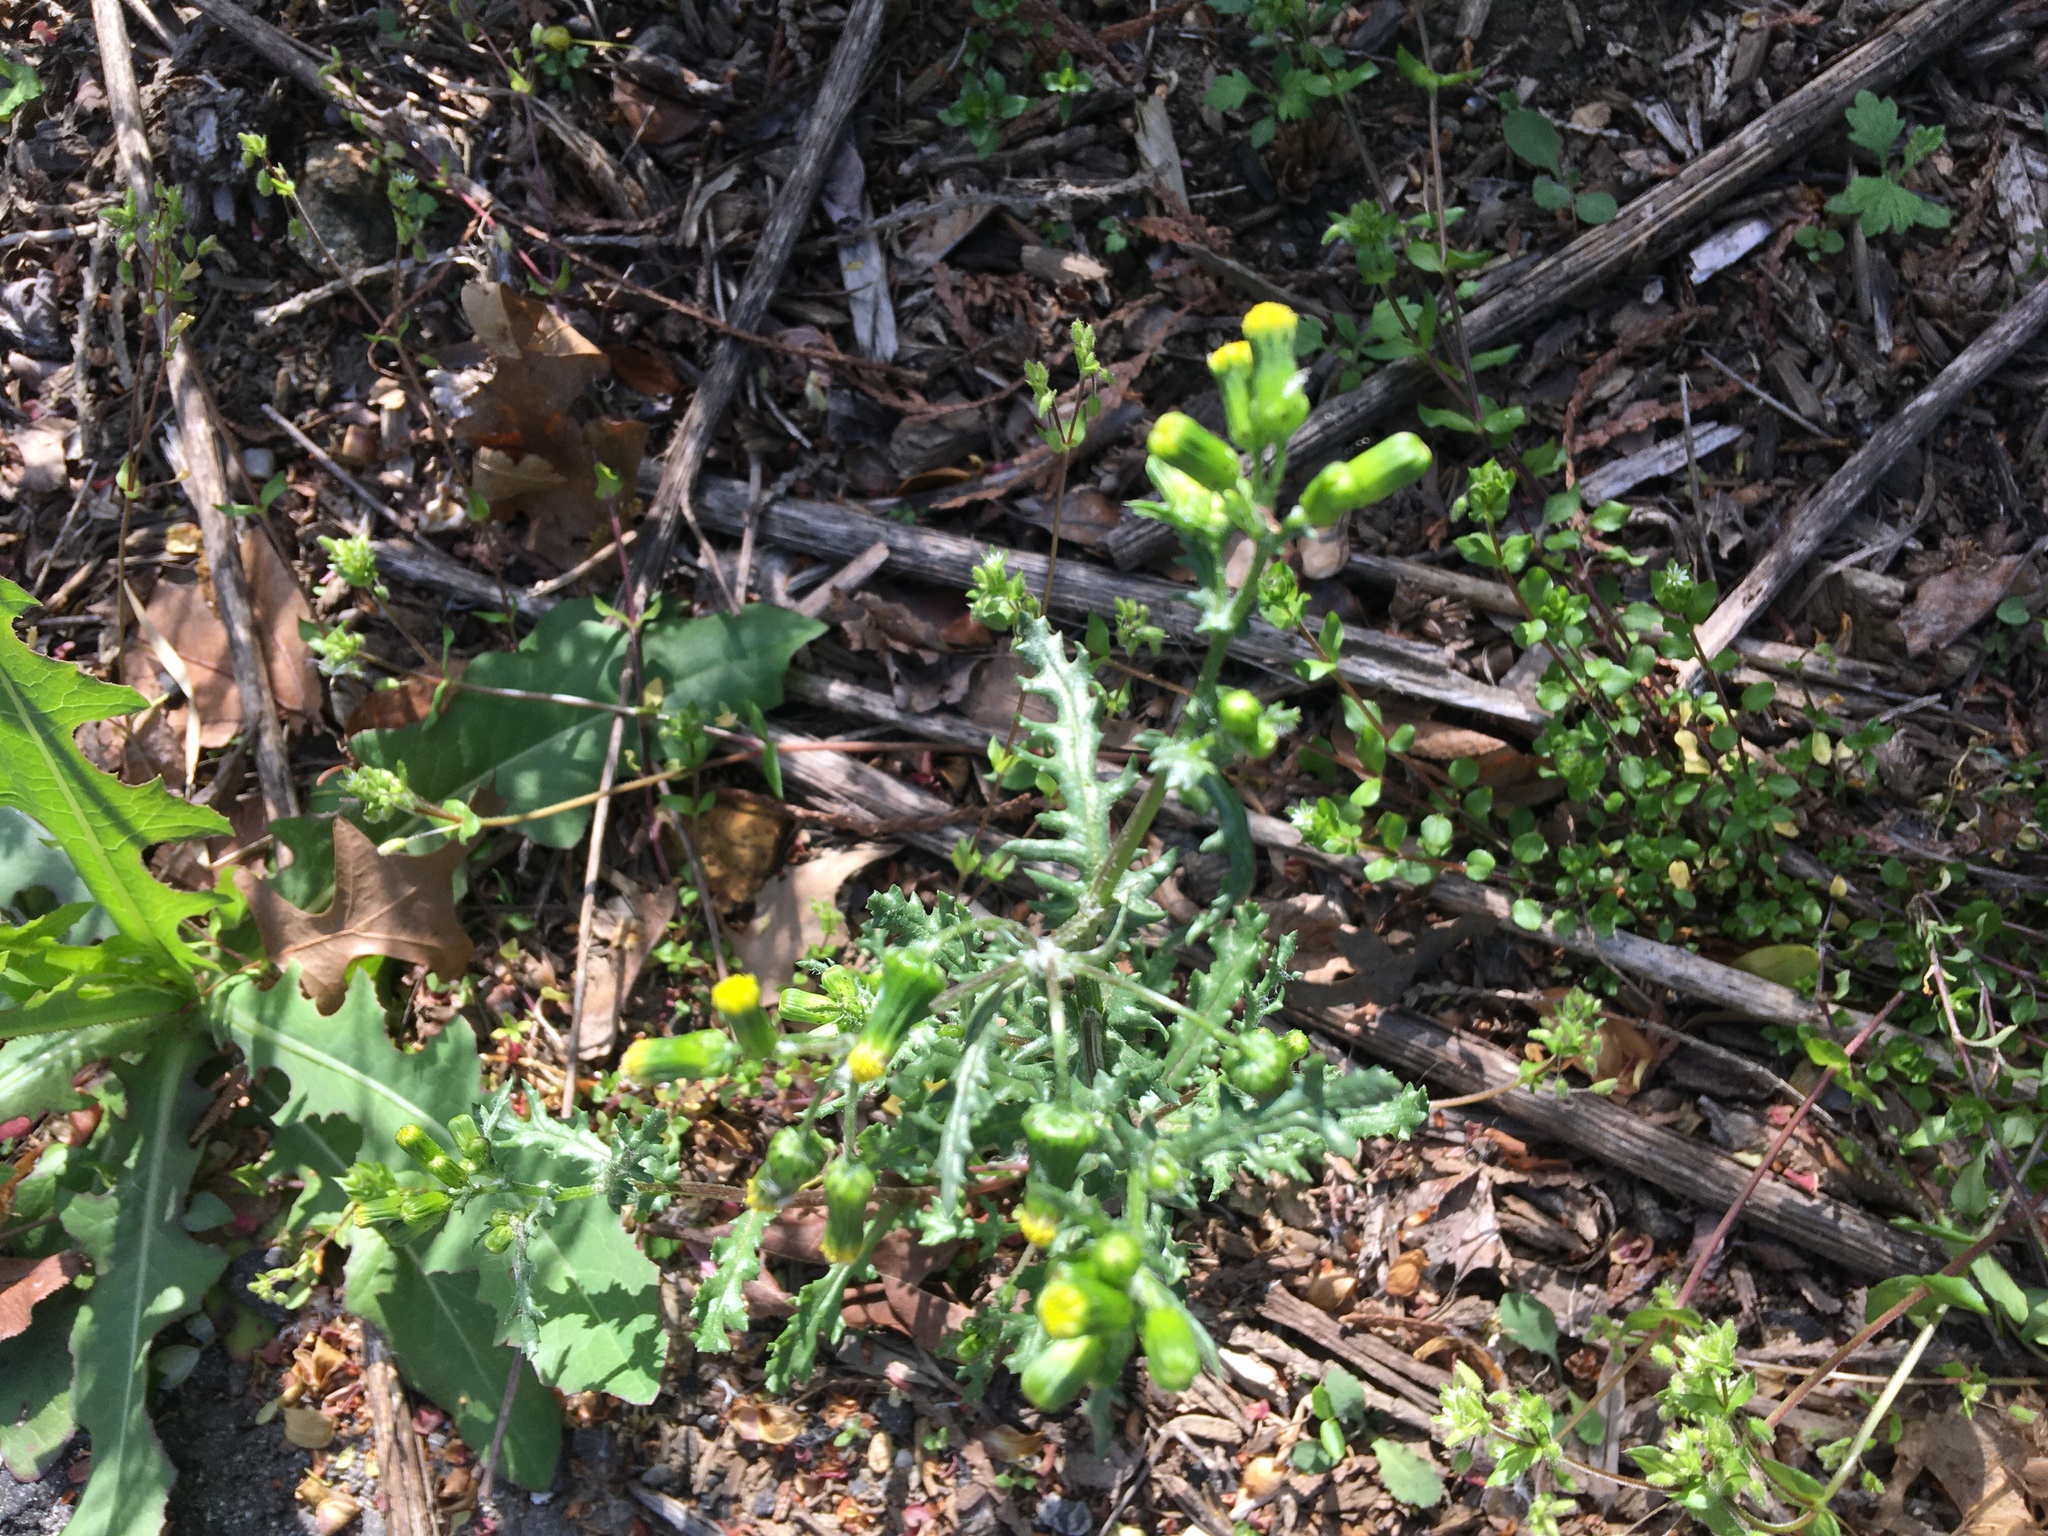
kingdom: Plantae
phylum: Tracheophyta
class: Magnoliopsida
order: Asterales
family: Asteraceae
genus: Senecio
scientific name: Senecio vulgaris
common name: Old-man-in-the-spring
